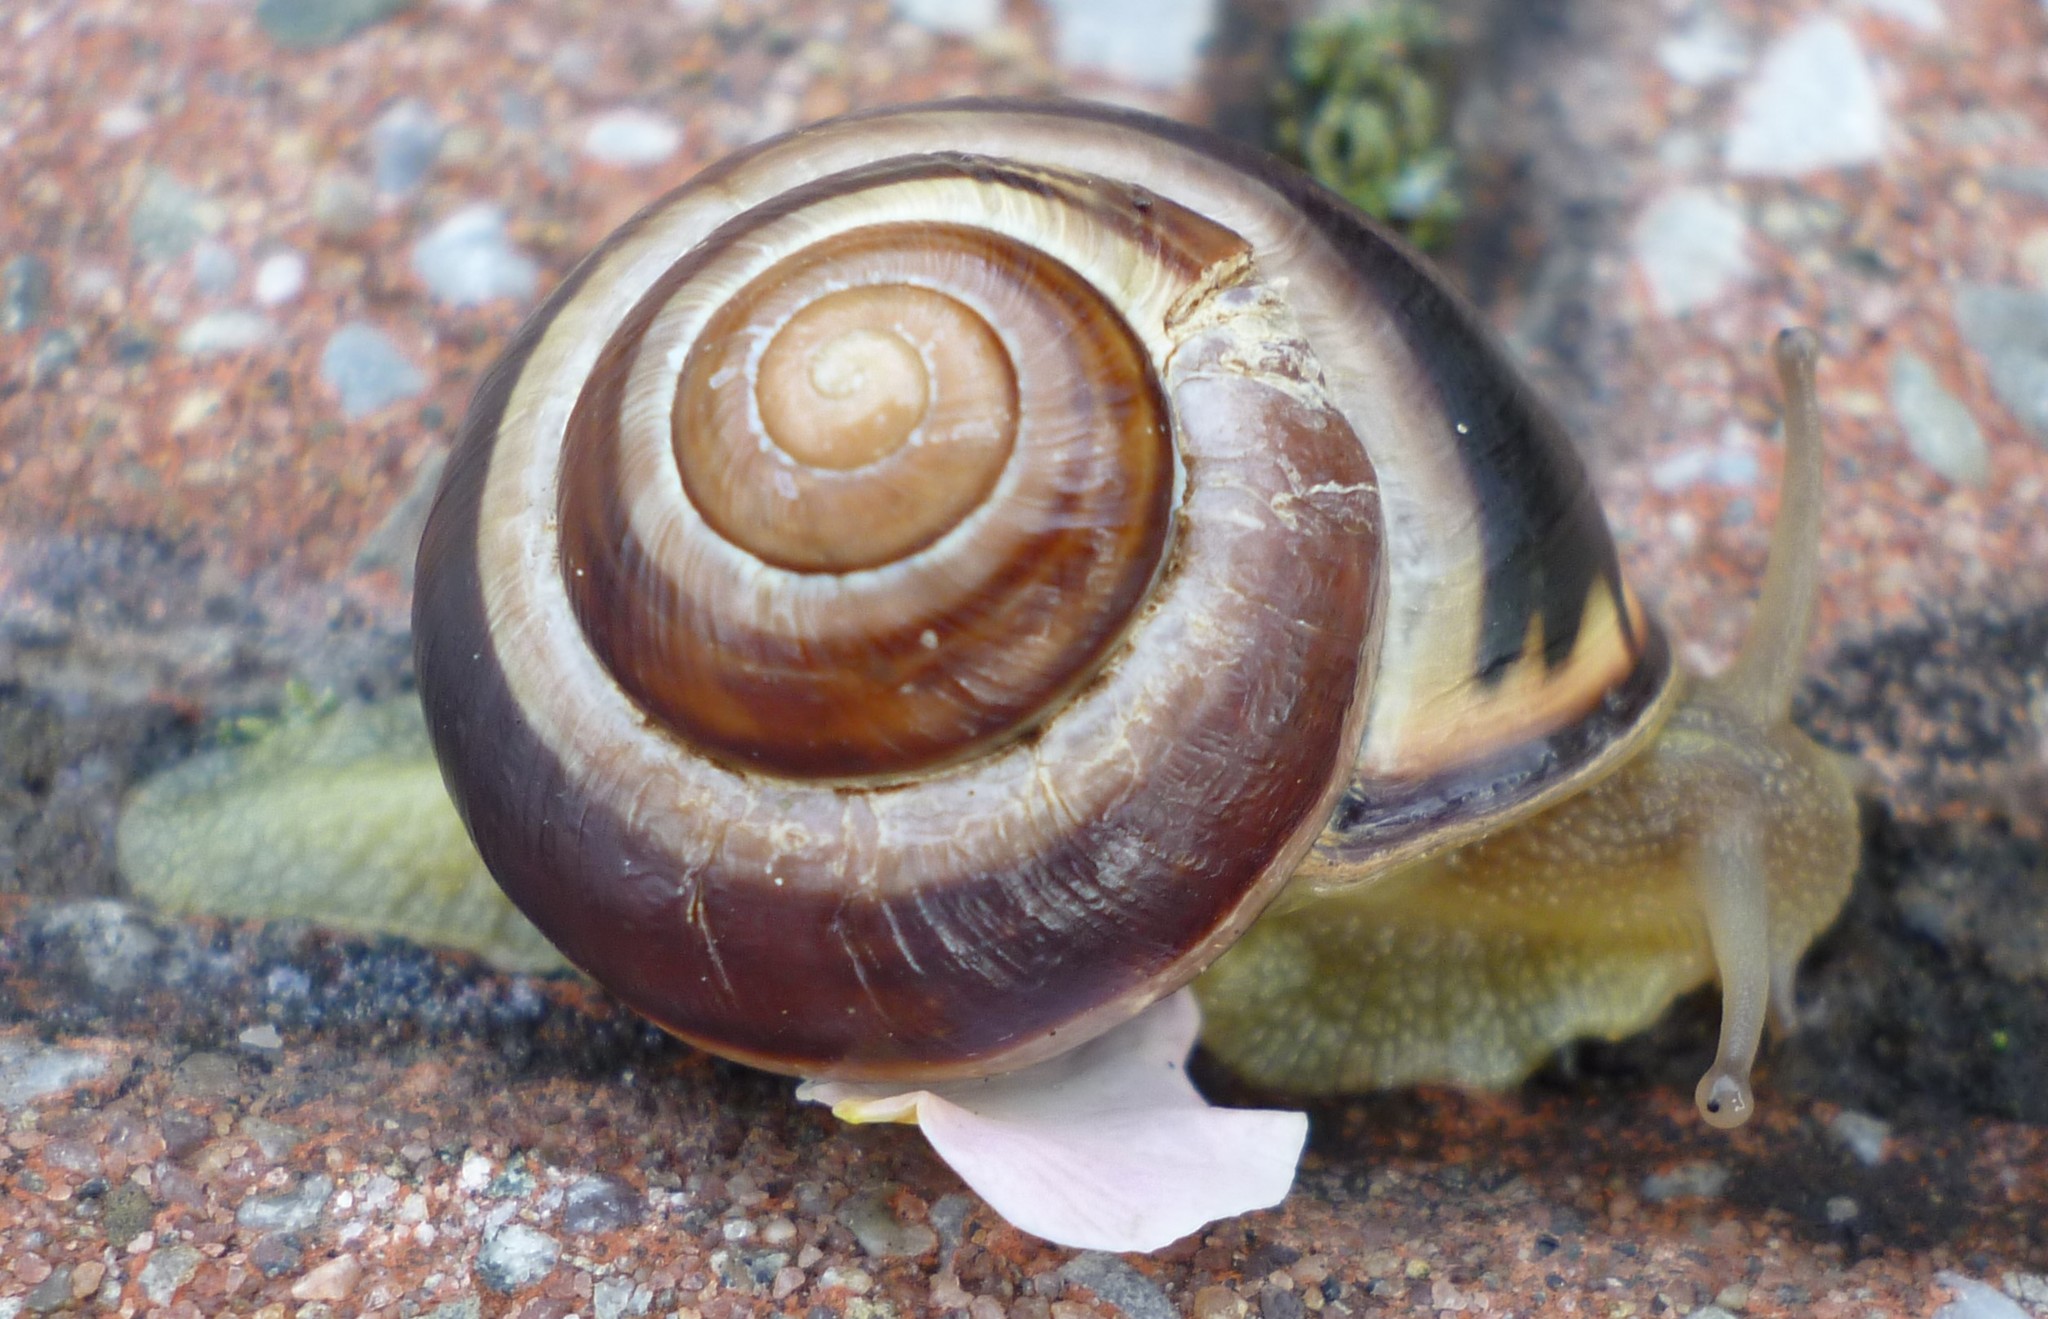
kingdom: Animalia
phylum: Mollusca
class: Gastropoda
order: Stylommatophora
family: Helicidae
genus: Cepaea
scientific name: Cepaea nemoralis
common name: Grovesnail
